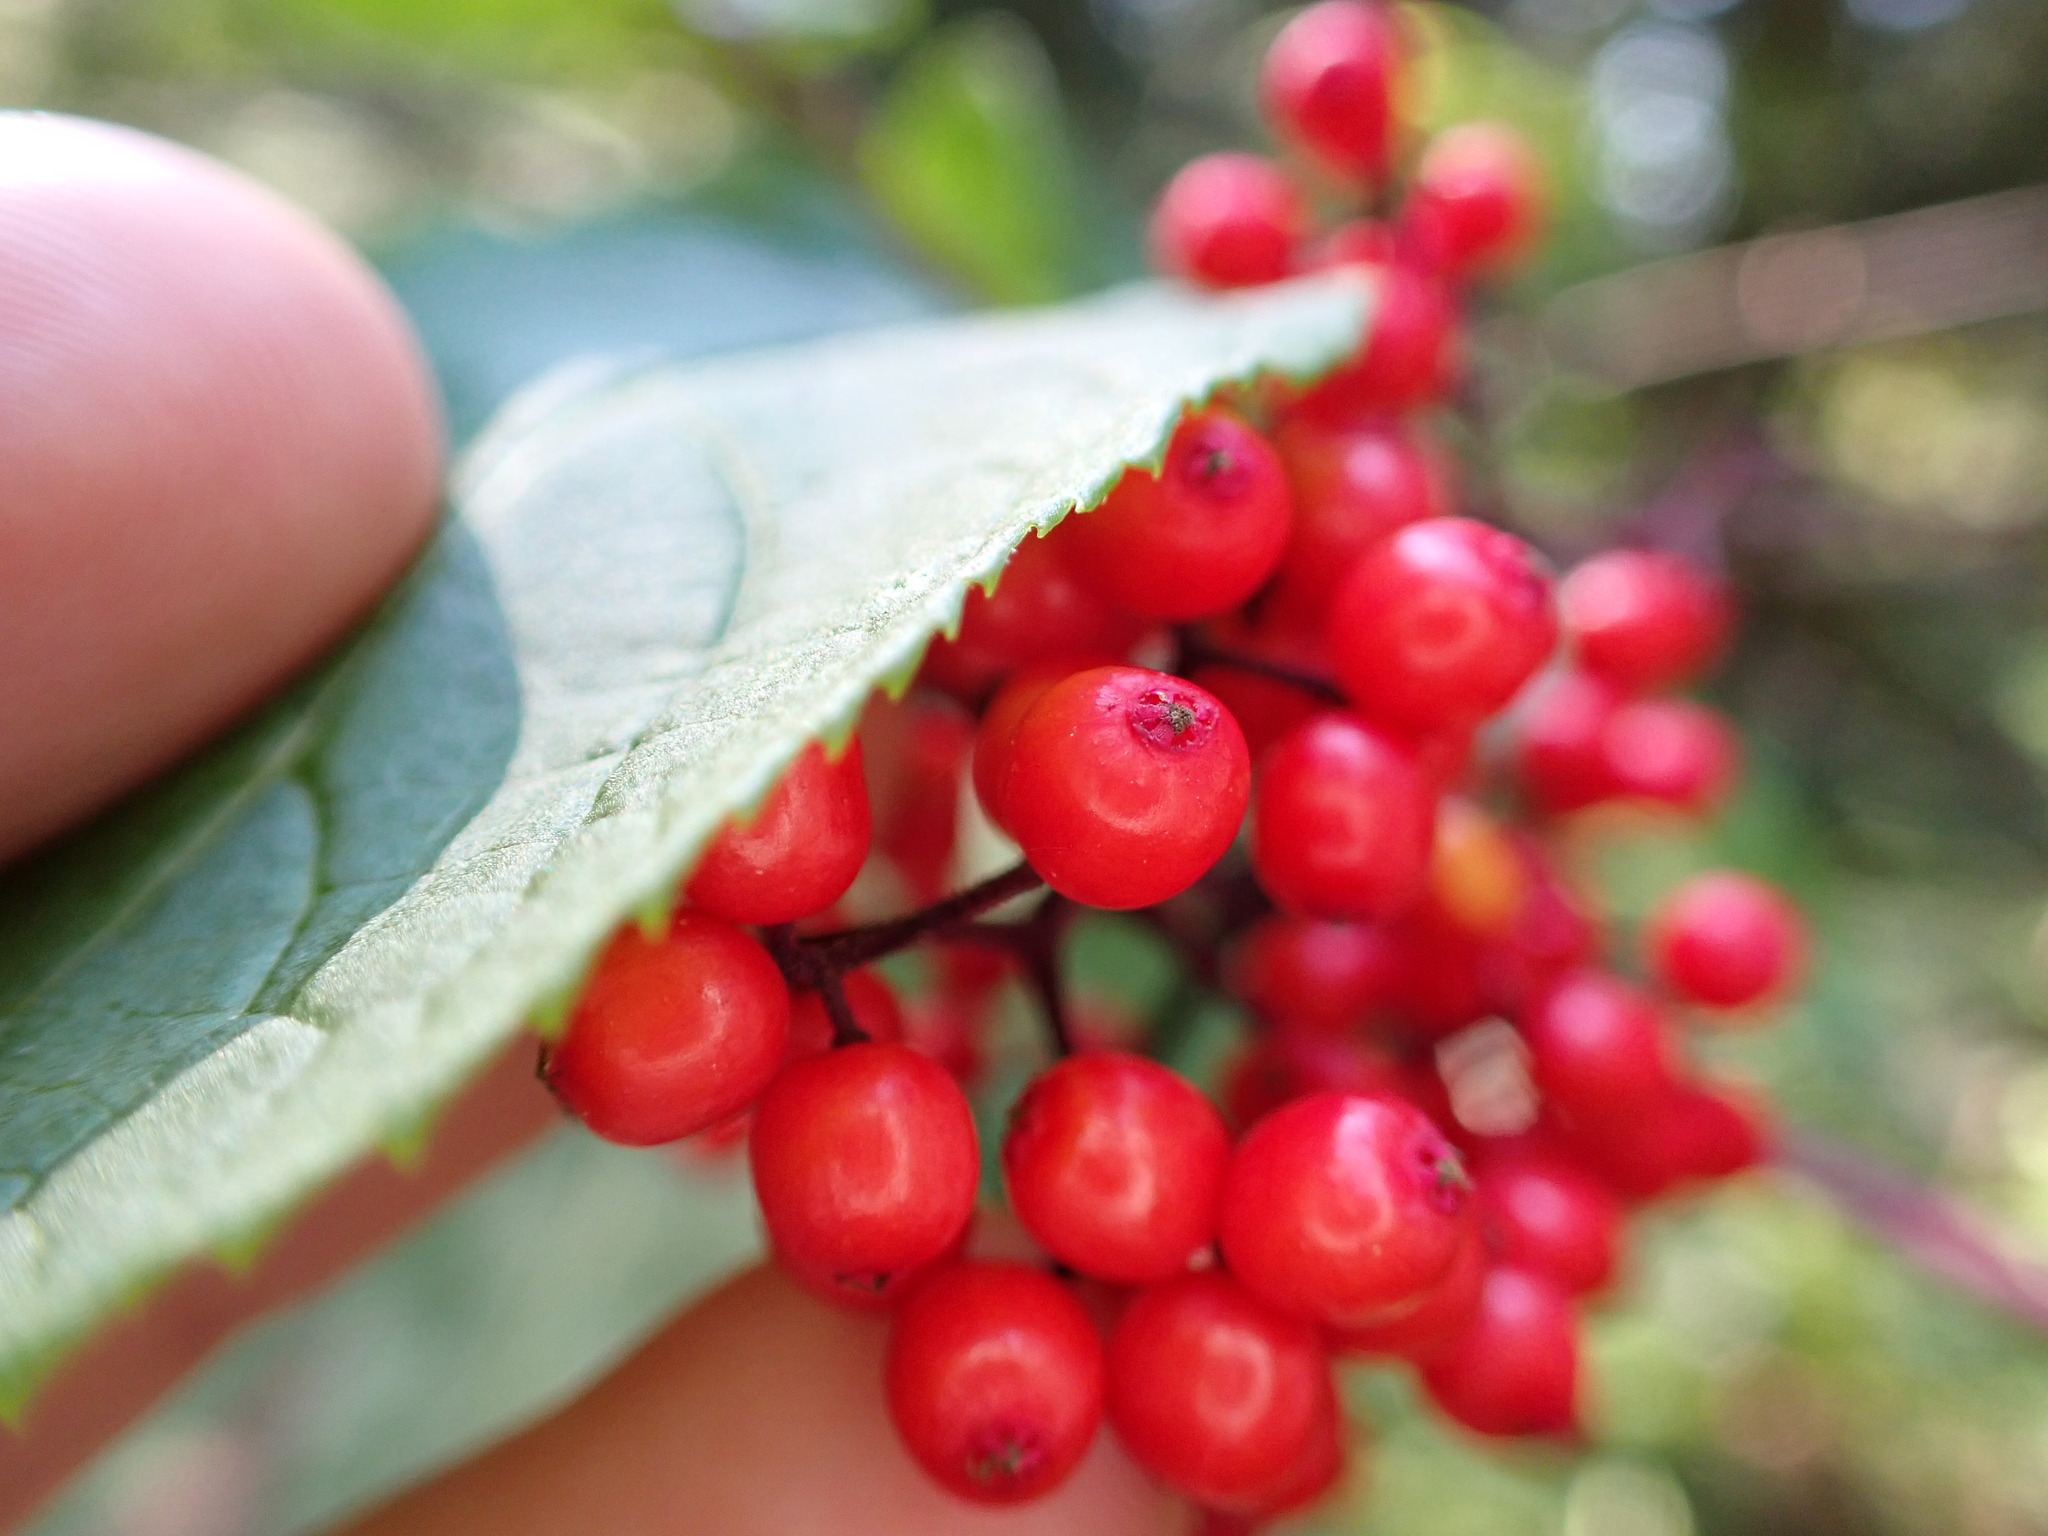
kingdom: Plantae
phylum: Tracheophyta
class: Magnoliopsida
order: Dipsacales
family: Viburnaceae
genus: Sambucus
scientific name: Sambucus racemosa
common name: Red-berried elder
